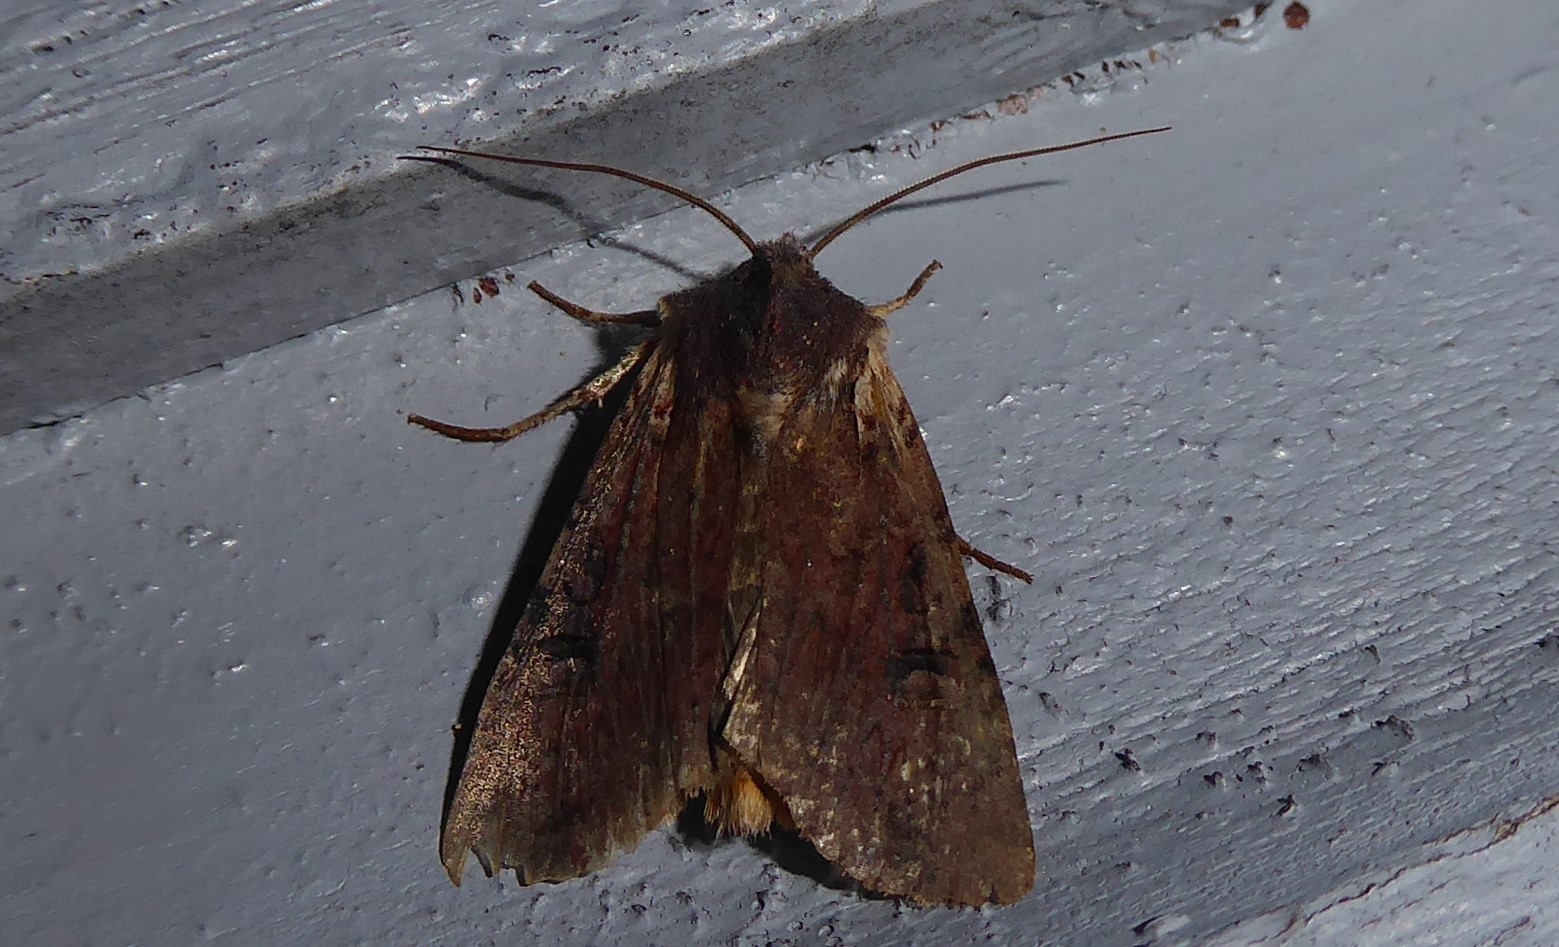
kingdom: Animalia
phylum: Arthropoda
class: Insecta
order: Lepidoptera
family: Noctuidae
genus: Ichneutica
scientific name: Ichneutica omoplaca
